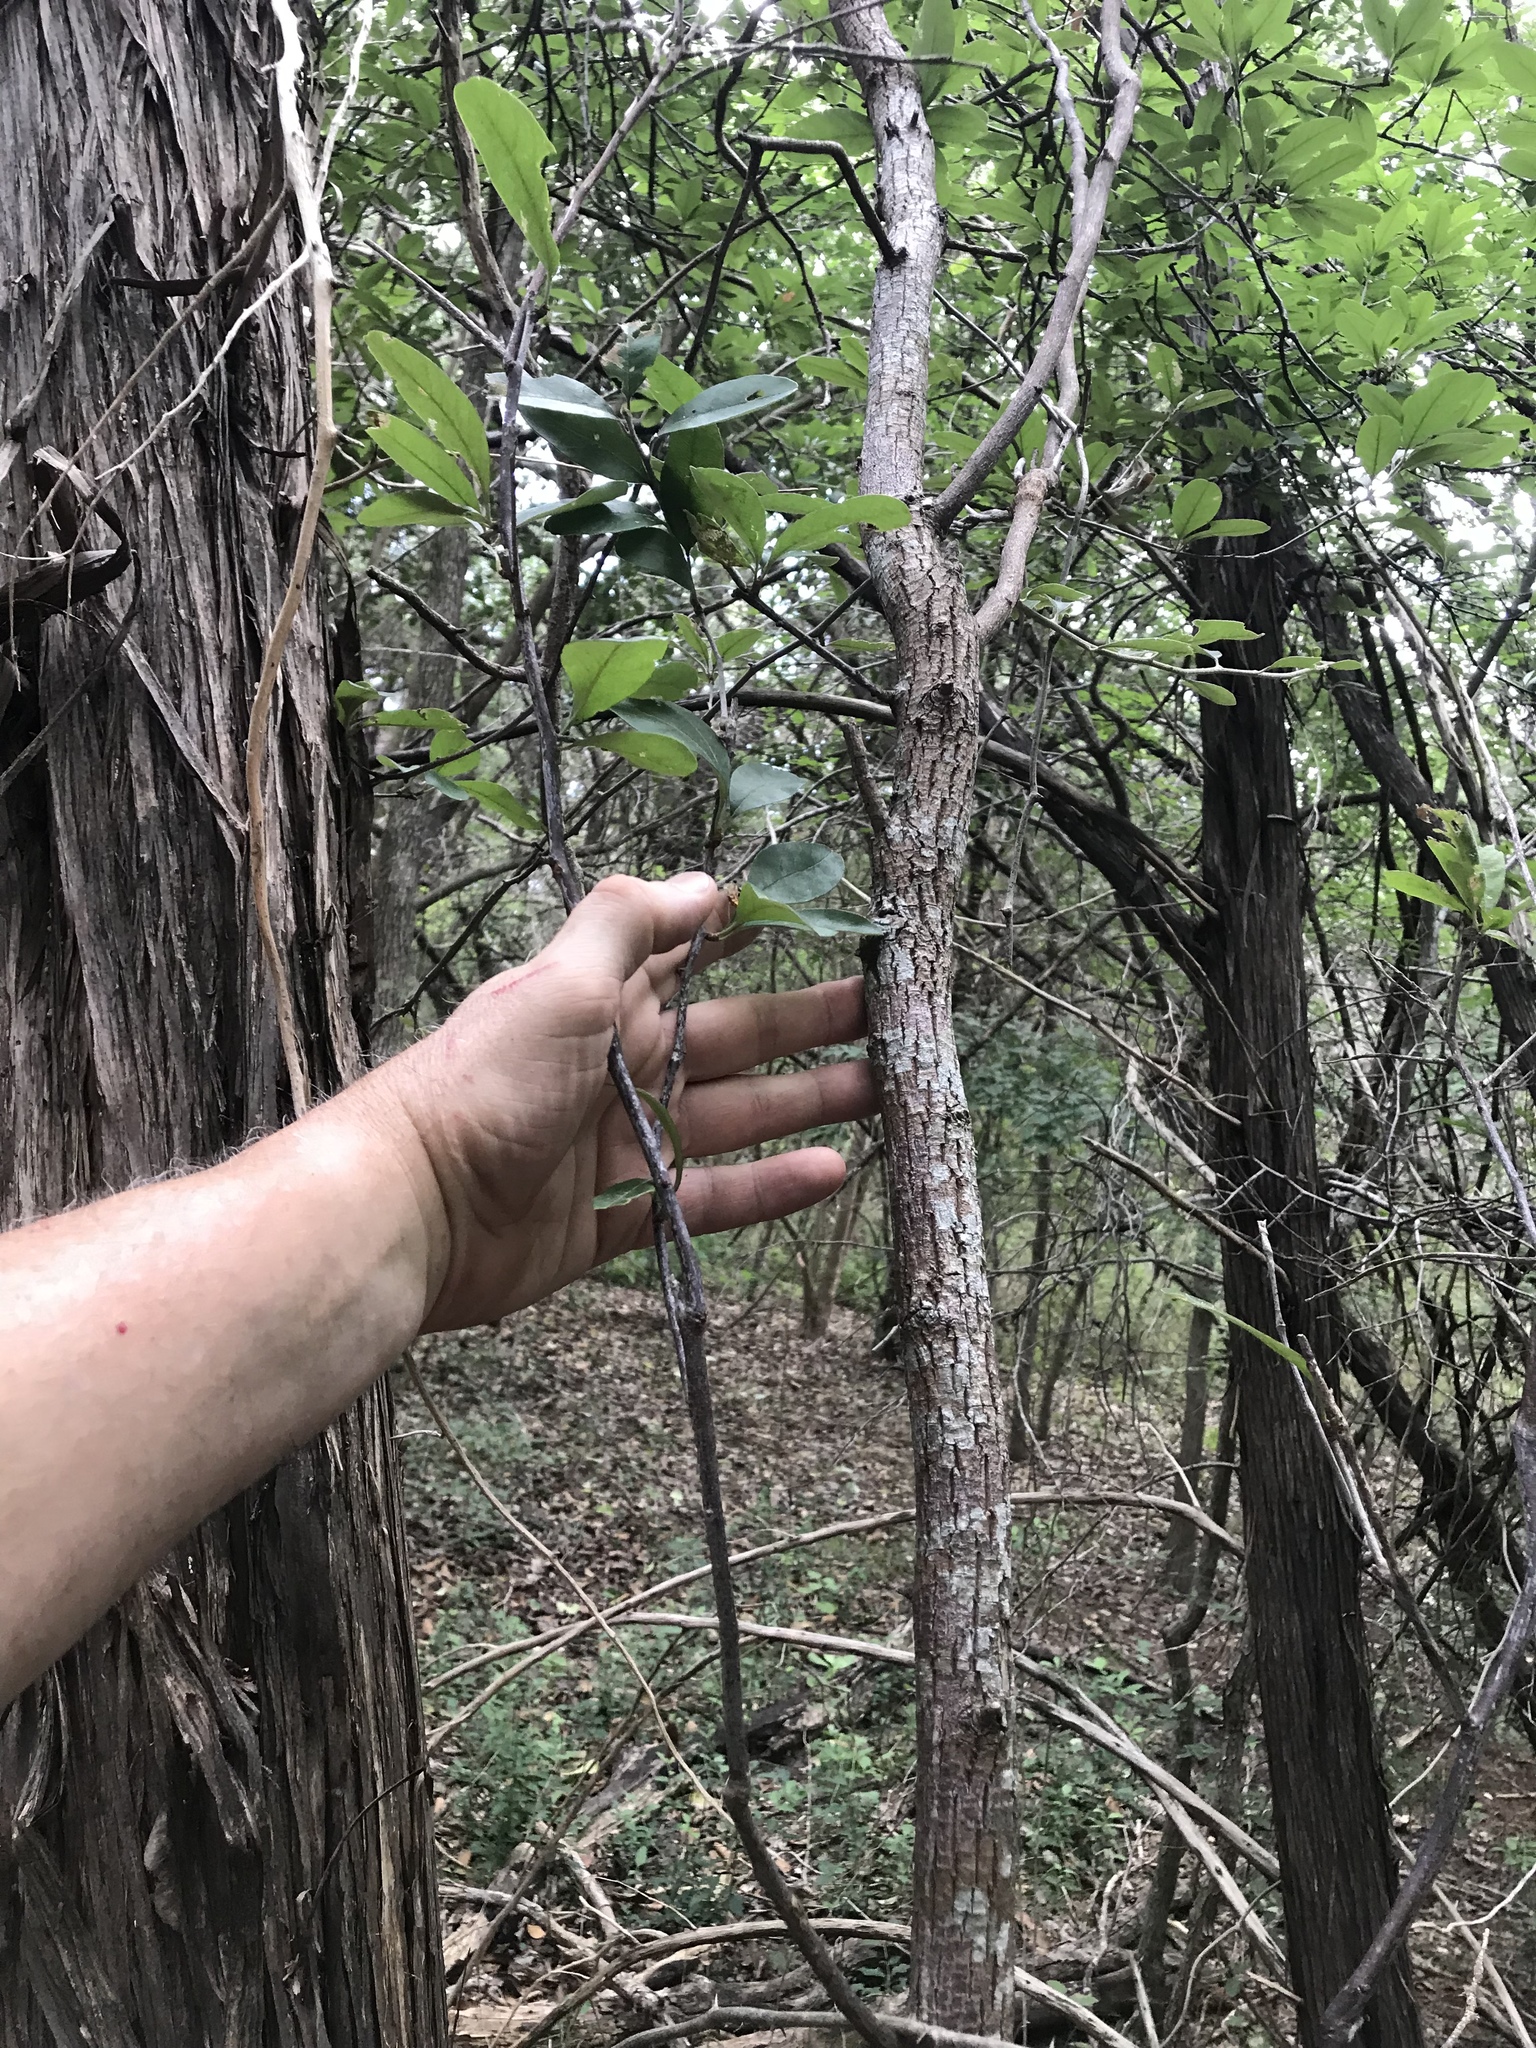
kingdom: Plantae
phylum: Tracheophyta
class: Magnoliopsida
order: Ericales
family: Sapotaceae
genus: Sideroxylon
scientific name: Sideroxylon lanuginosum
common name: Chittamwood
